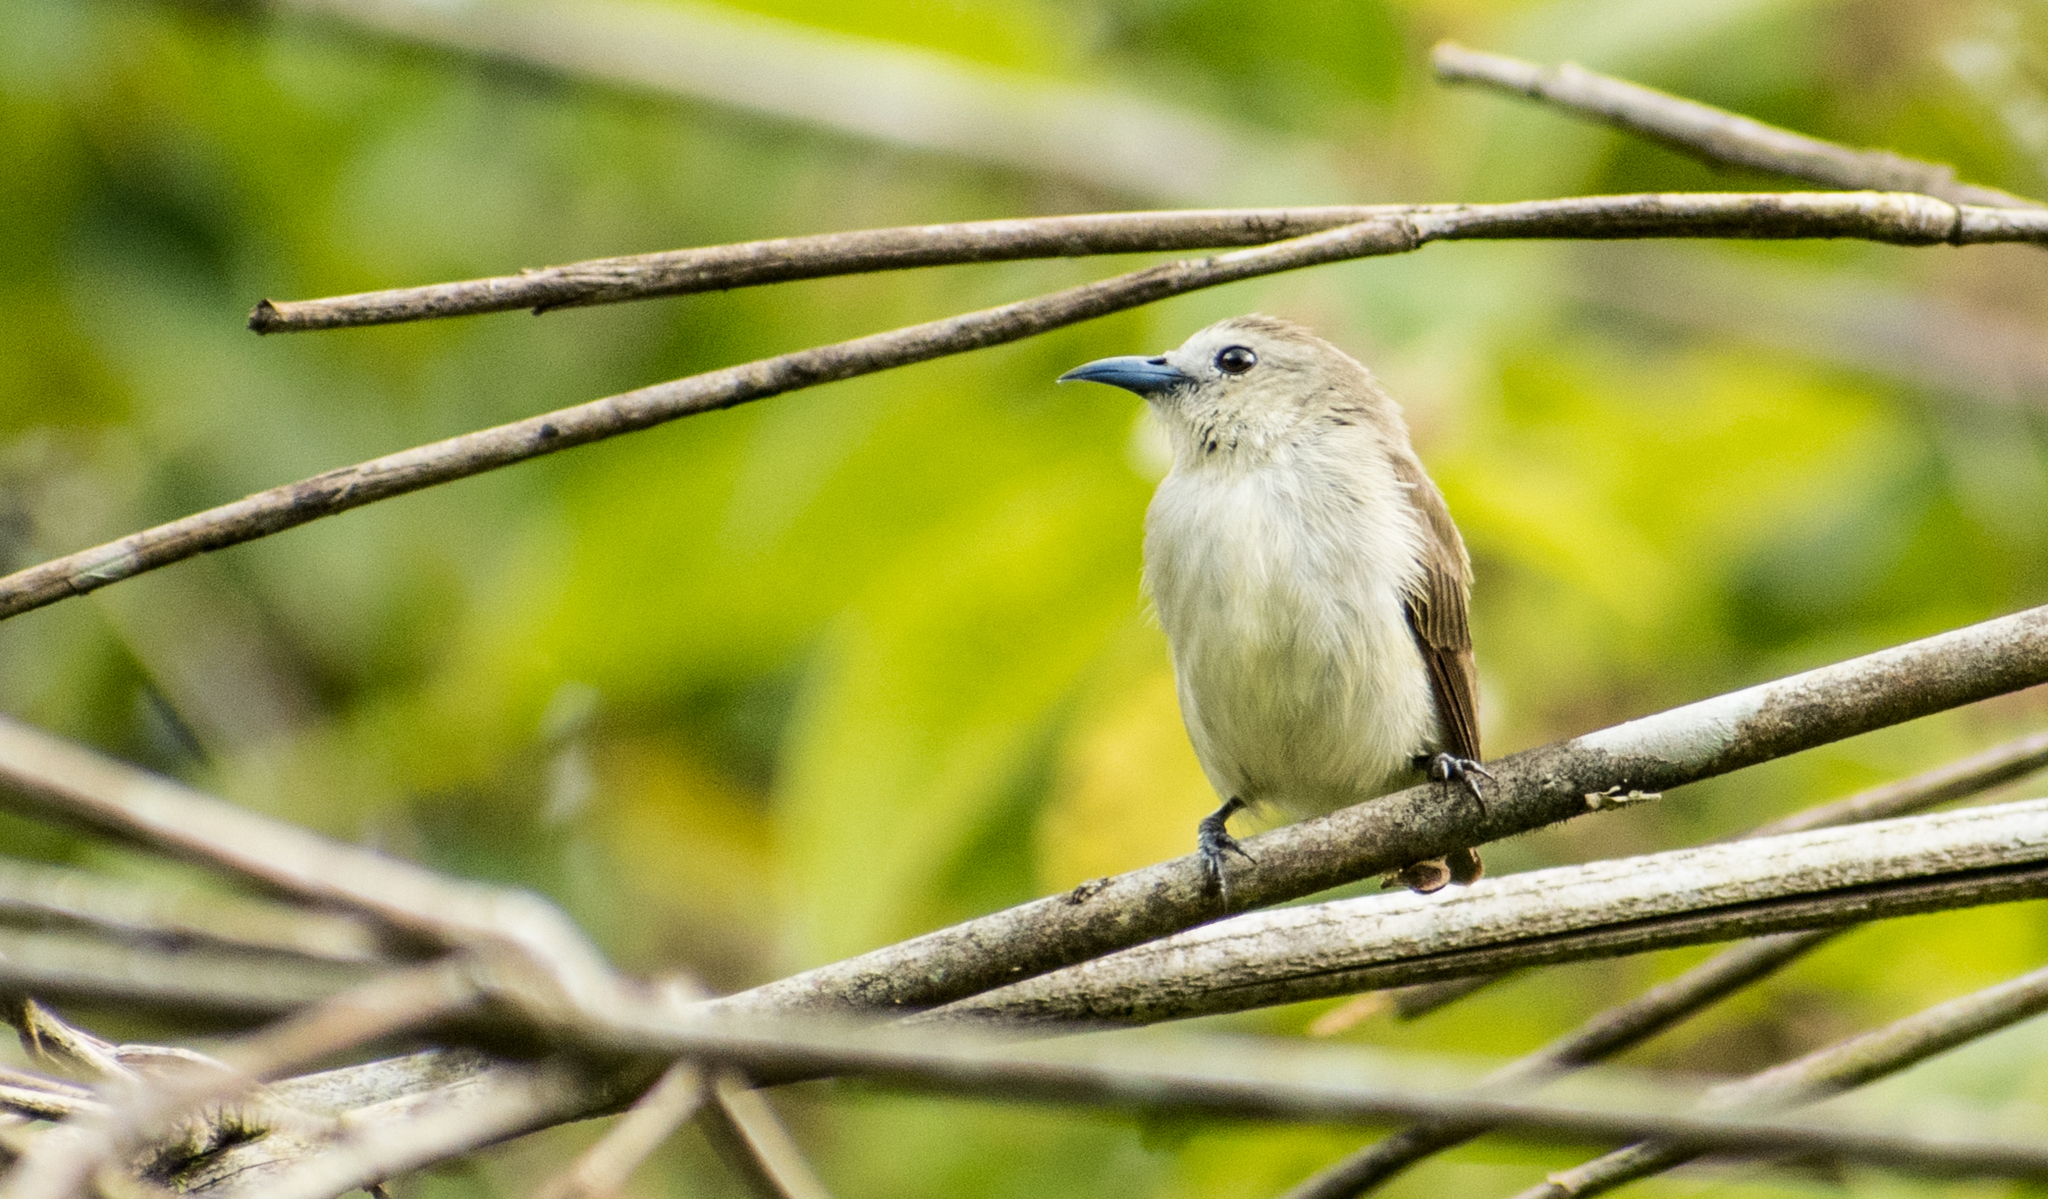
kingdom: Animalia
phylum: Chordata
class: Aves
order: Passeriformes
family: Dicaeidae
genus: Dicaeum
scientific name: Dicaeum concolor
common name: Nilgiri flowerpecker
